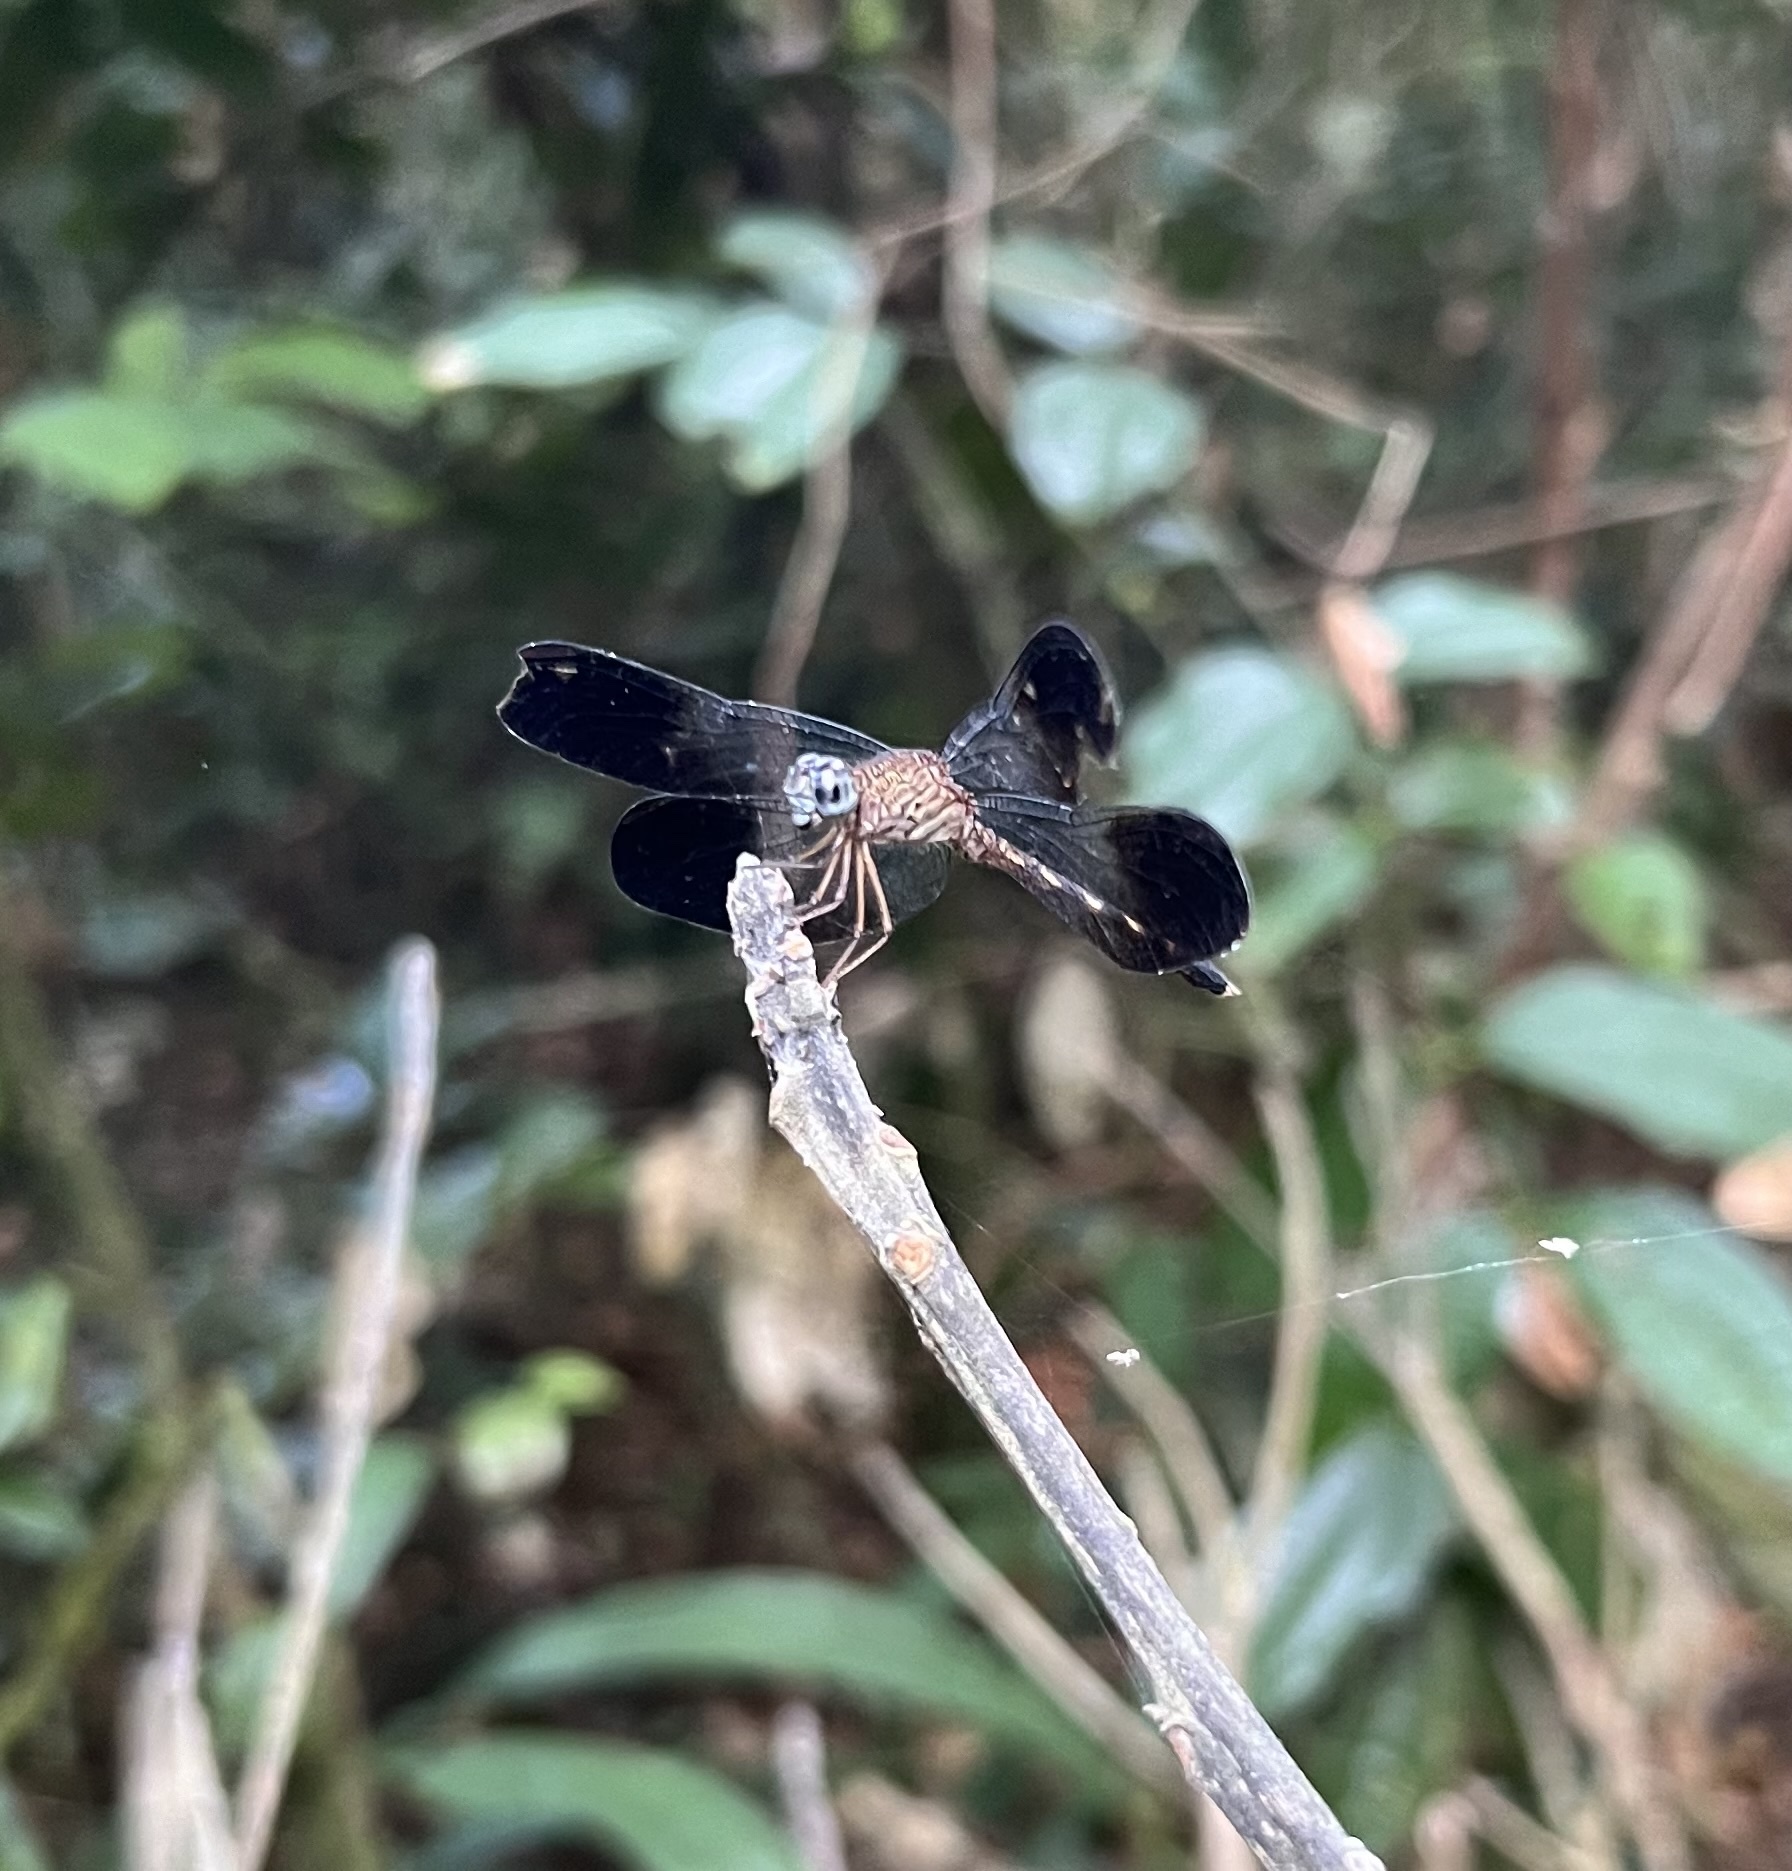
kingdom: Animalia
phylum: Arthropoda
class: Insecta
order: Odonata
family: Libellulidae
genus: Uracis
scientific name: Uracis fastigiata
